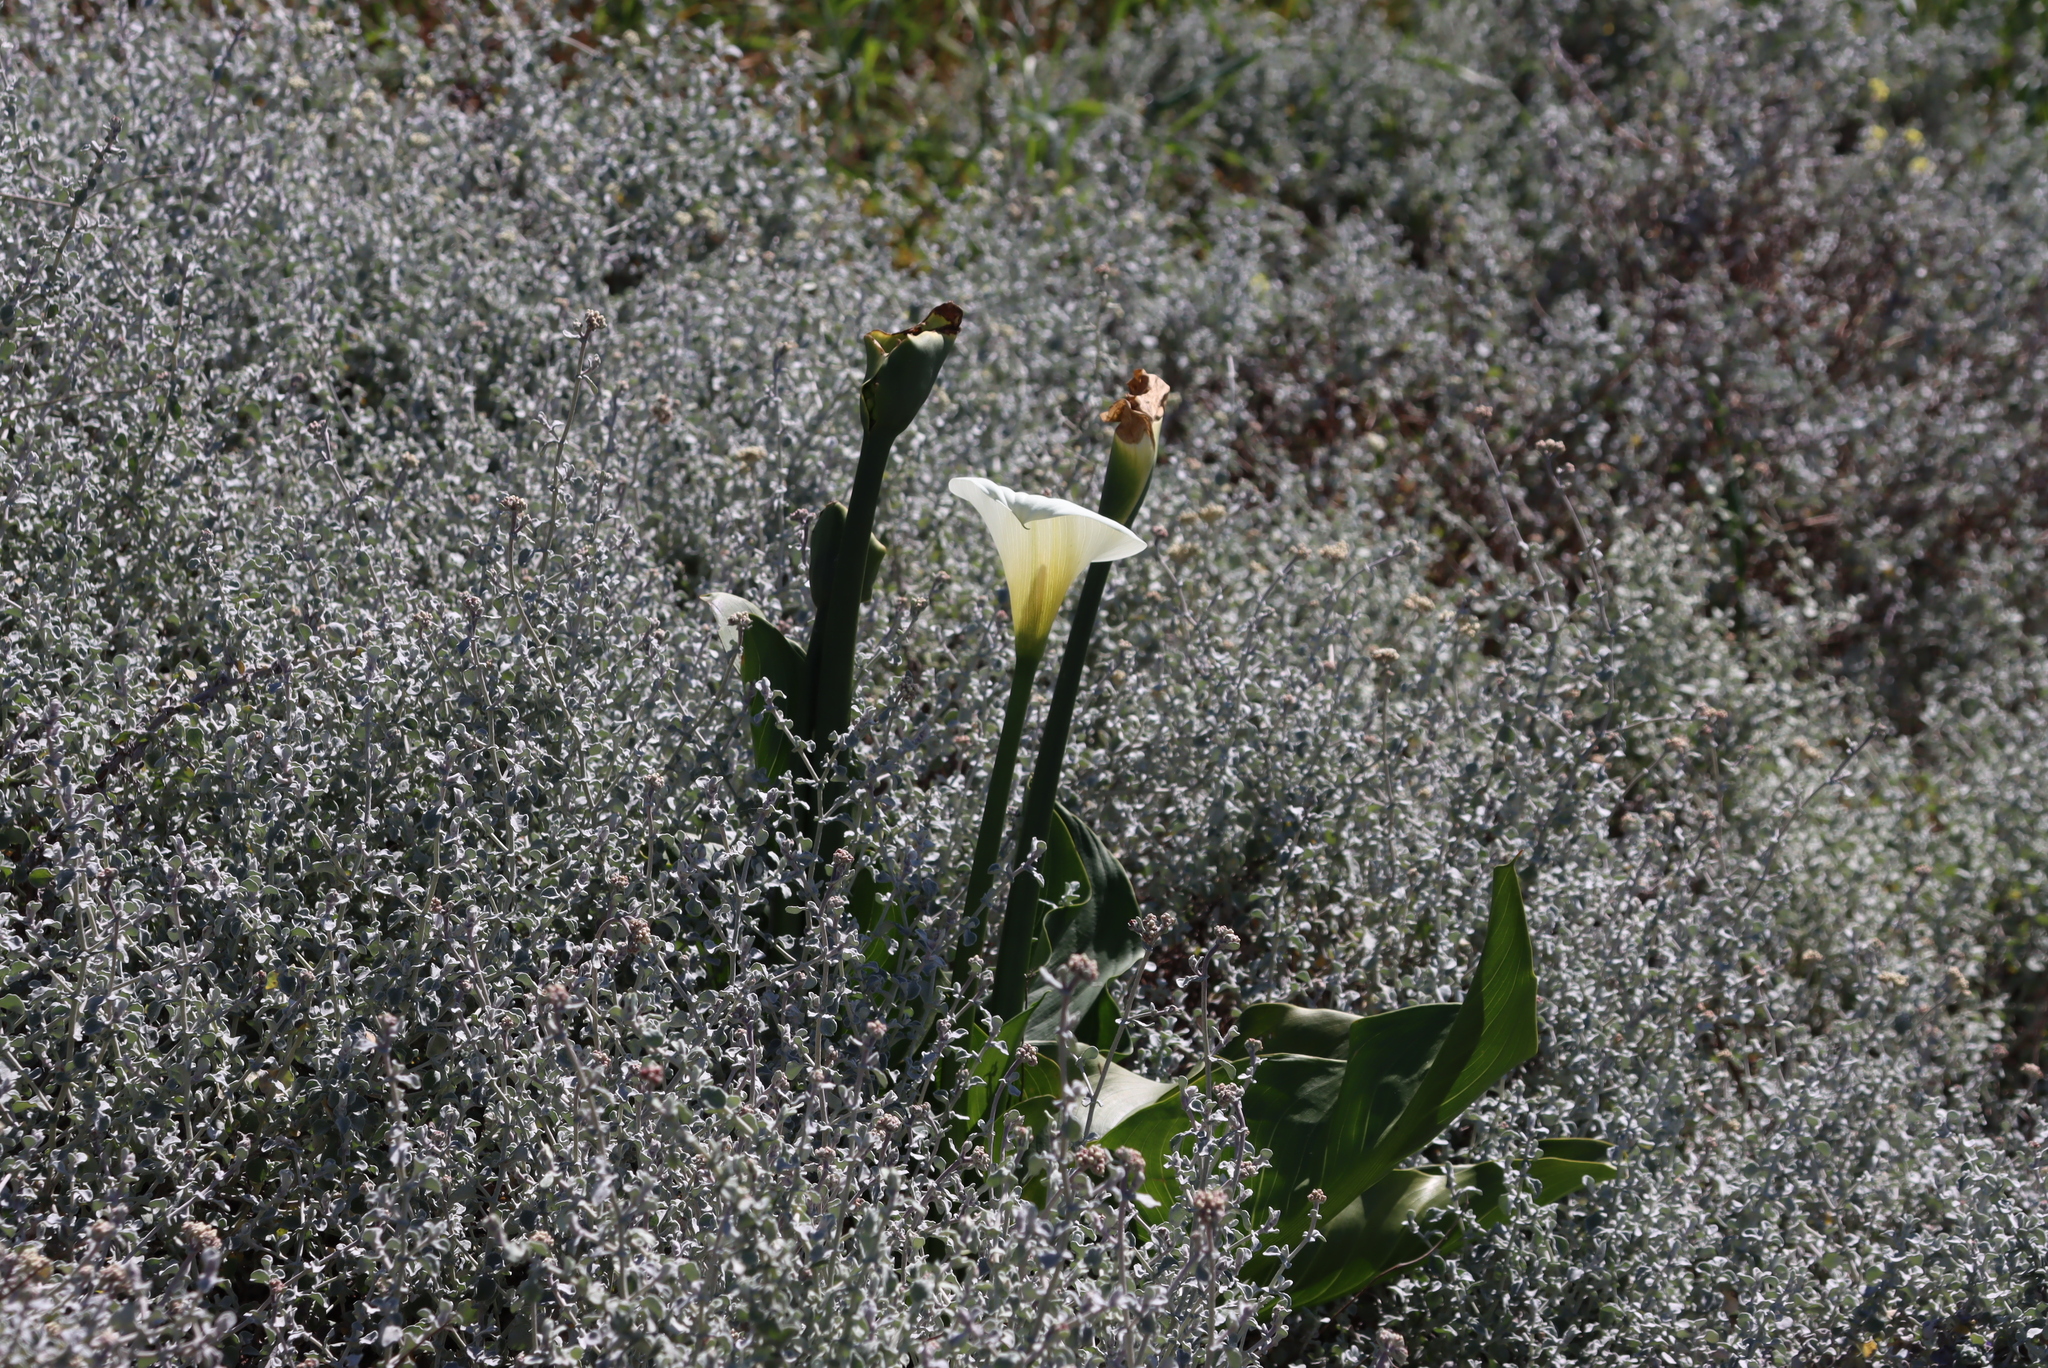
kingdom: Plantae
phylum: Tracheophyta
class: Liliopsida
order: Alismatales
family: Araceae
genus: Zantedeschia
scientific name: Zantedeschia aethiopica
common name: Altar-lily
